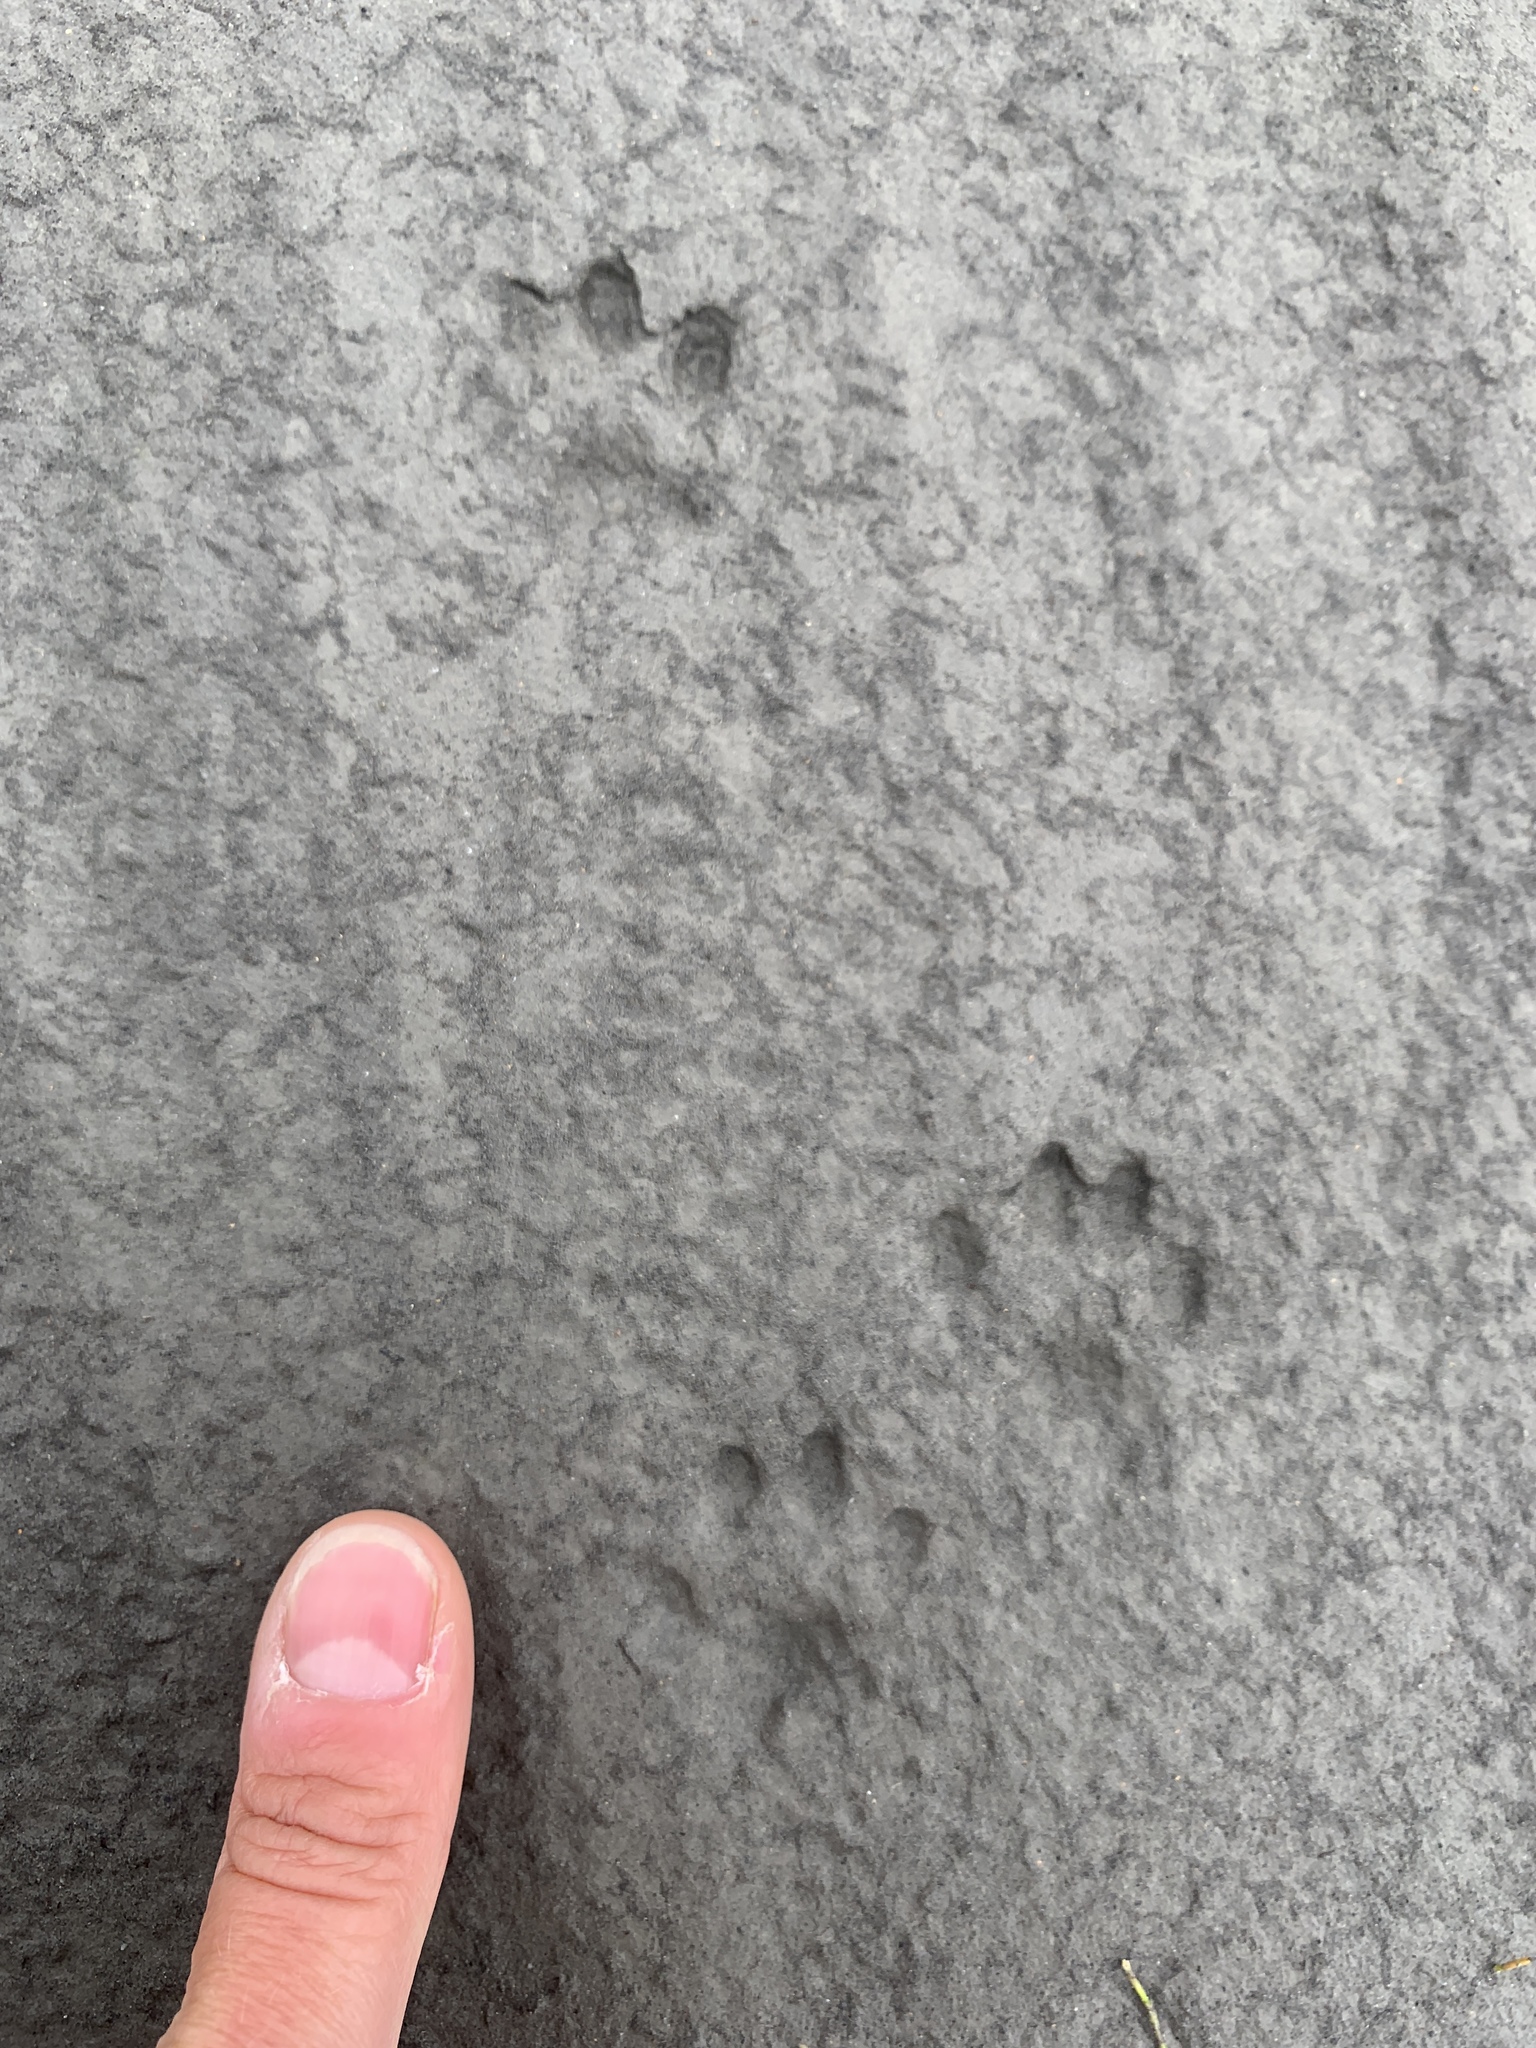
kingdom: Animalia
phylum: Chordata
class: Mammalia
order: Carnivora
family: Mustelidae
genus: Mustela
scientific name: Mustela
